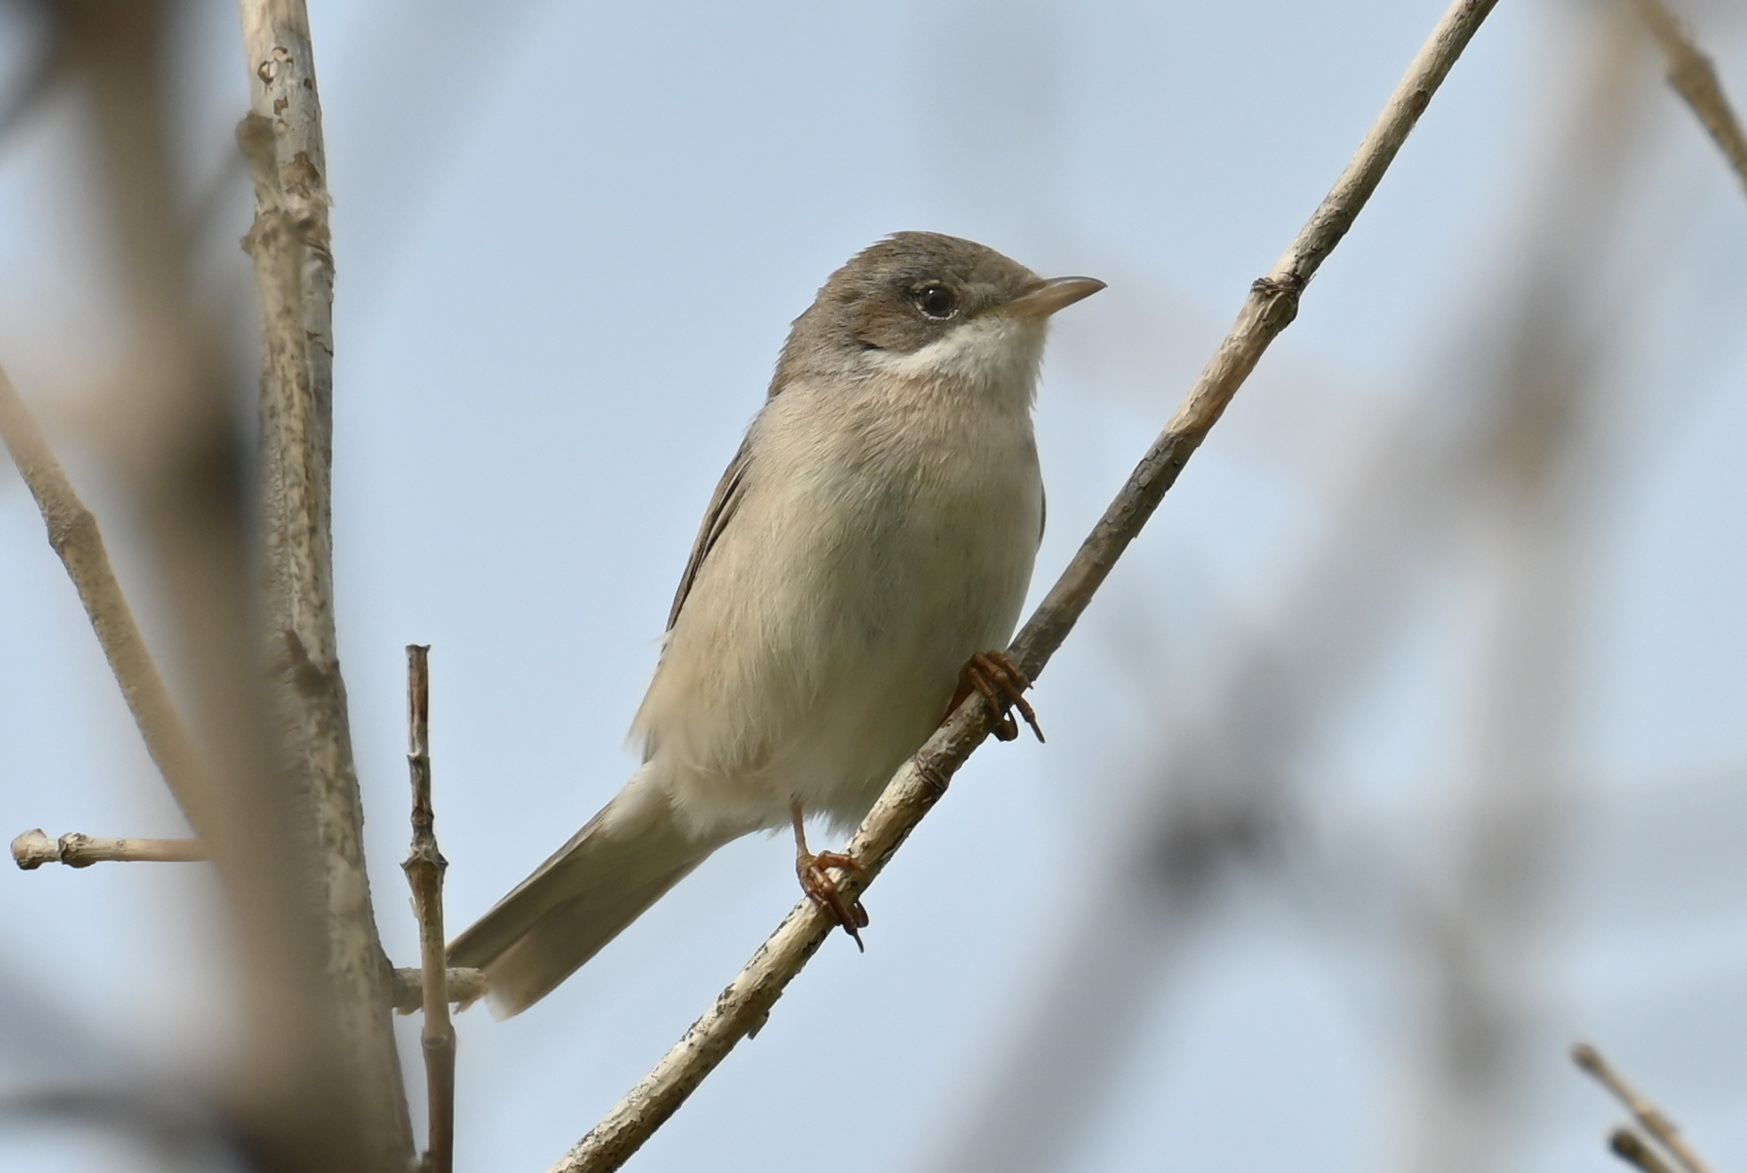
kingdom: Animalia
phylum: Chordata
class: Aves
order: Passeriformes
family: Sylviidae
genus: Sylvia
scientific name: Sylvia communis
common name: Common whitethroat
